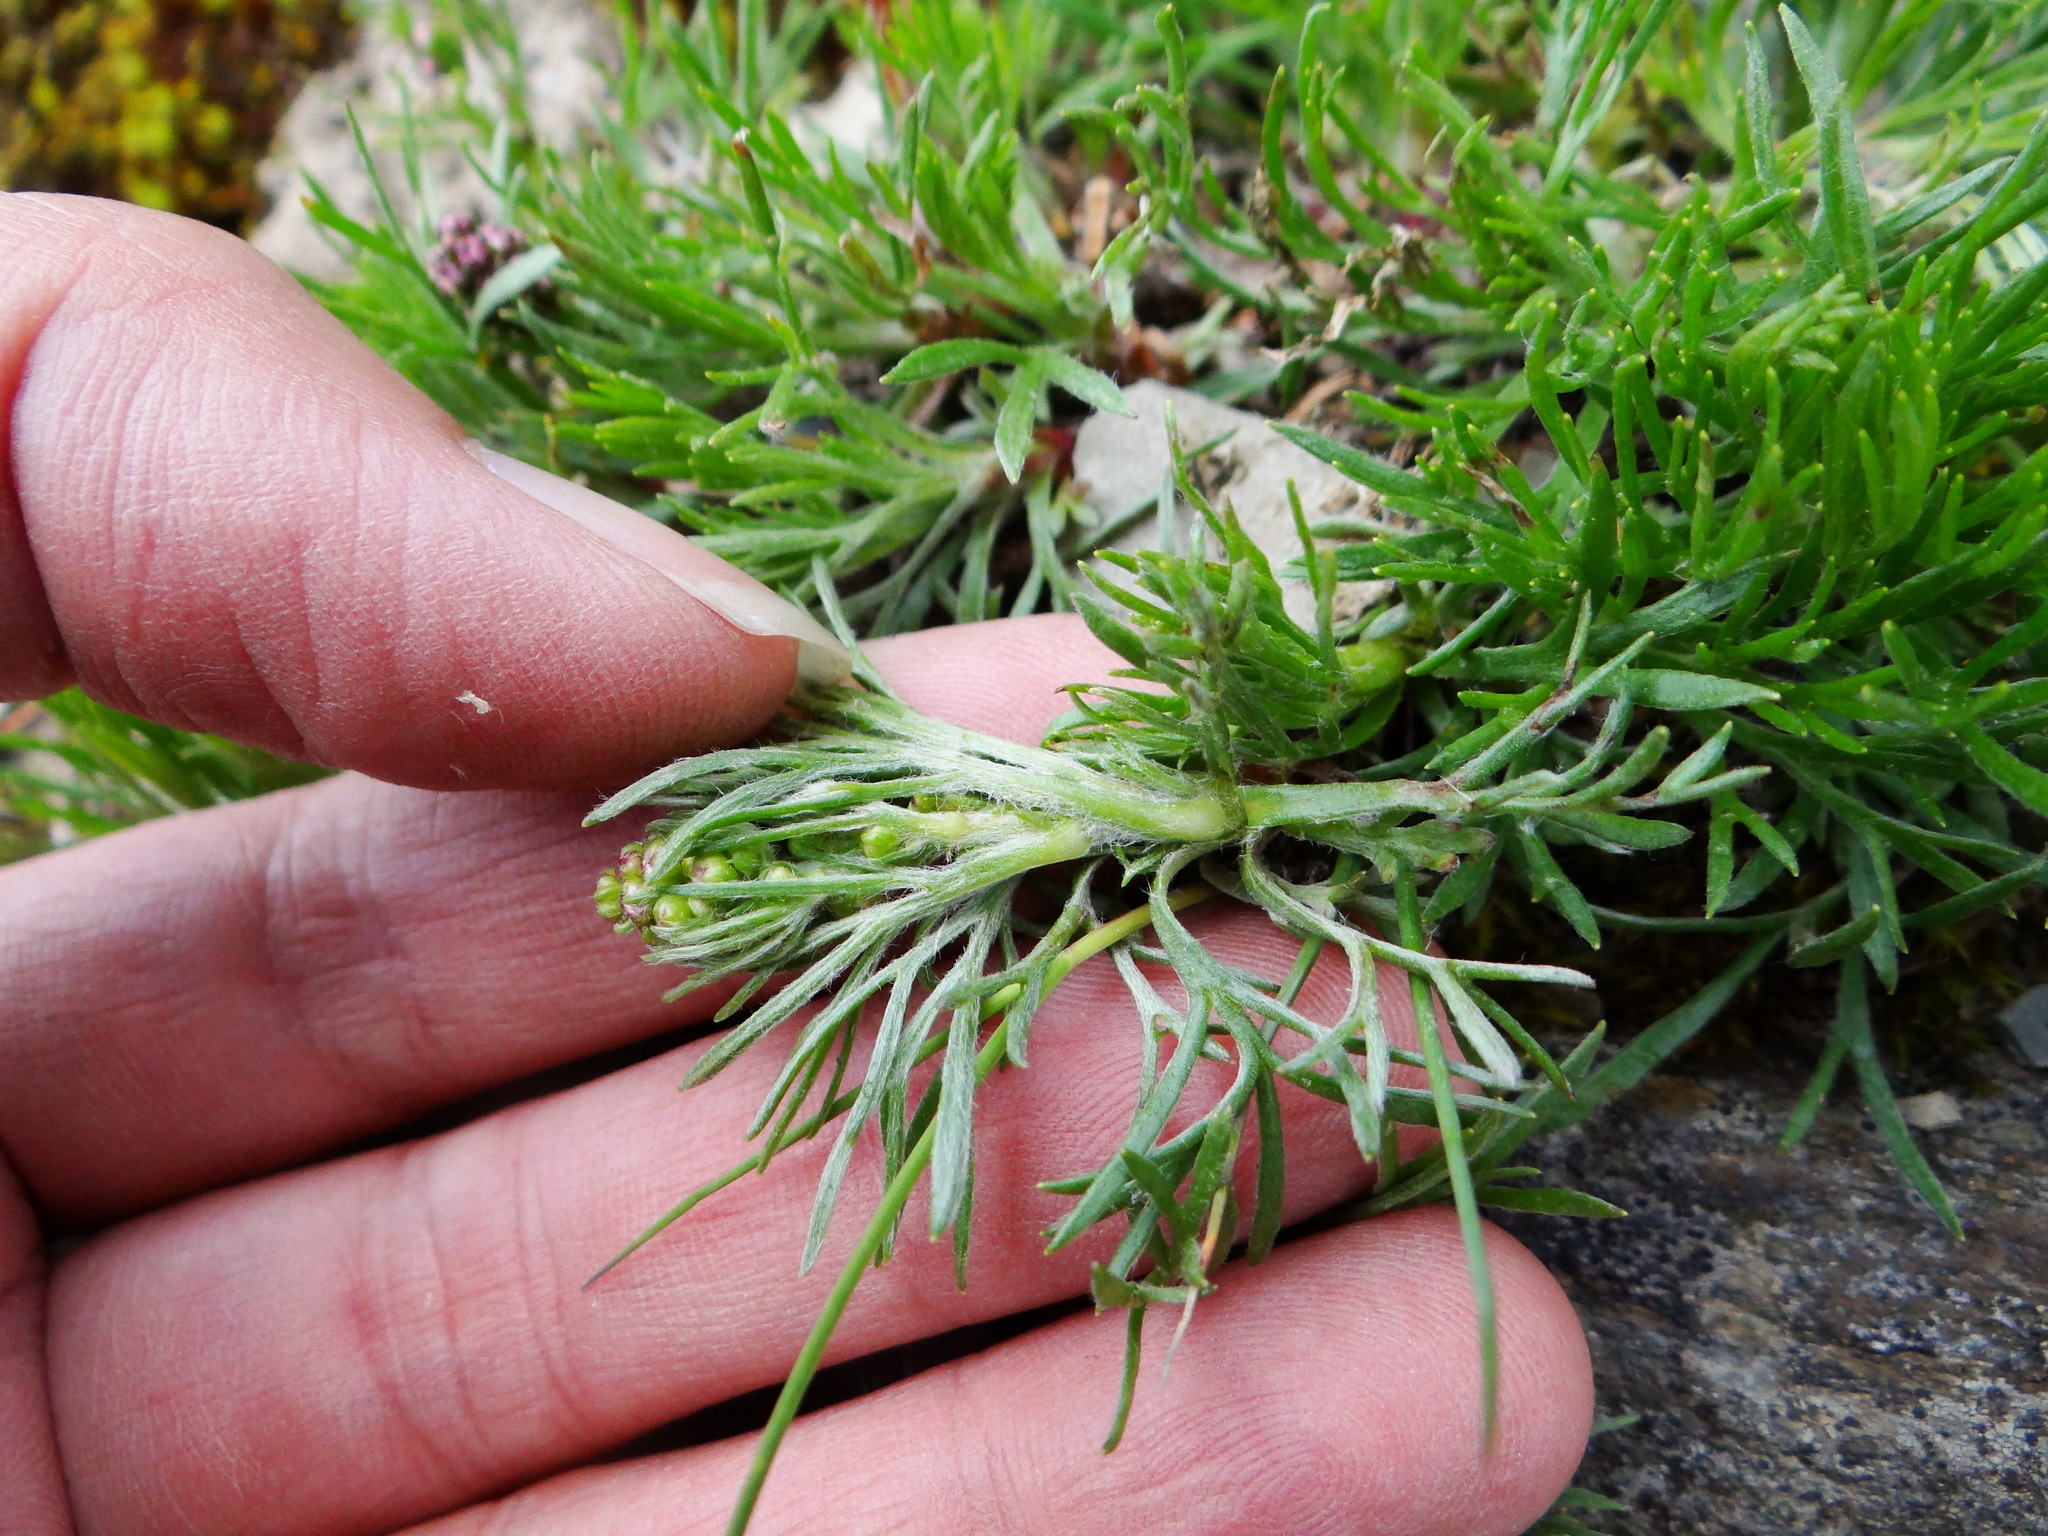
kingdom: Plantae
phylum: Tracheophyta
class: Magnoliopsida
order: Asterales
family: Asteraceae
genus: Artemisia
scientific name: Artemisia oligocarpa
